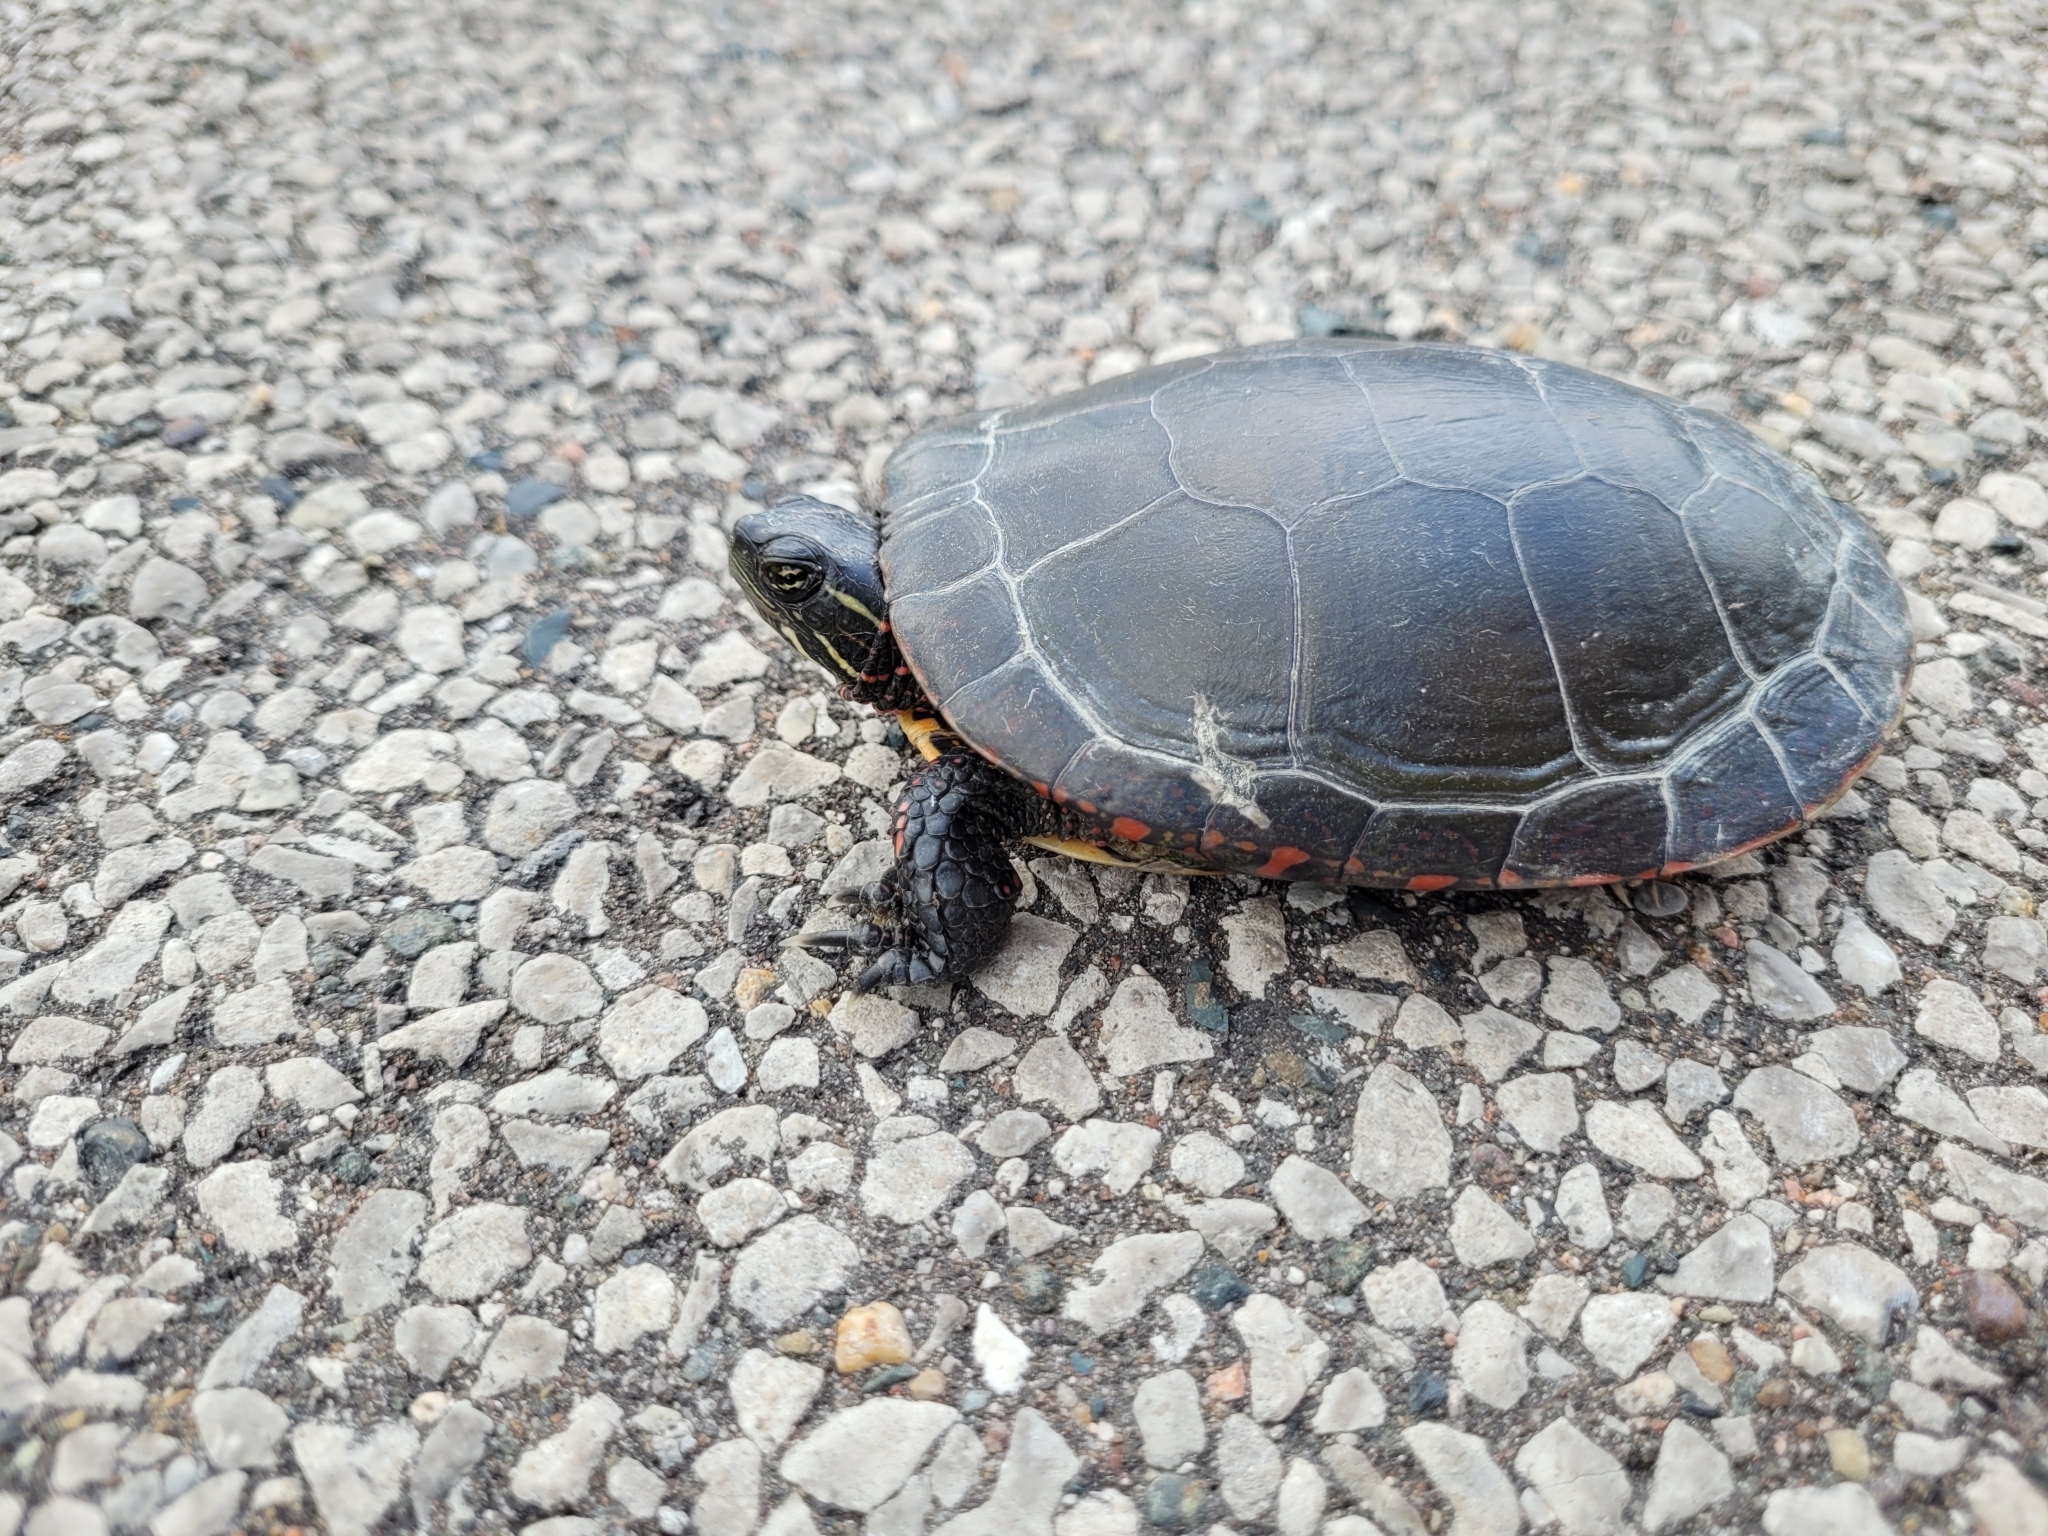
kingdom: Animalia
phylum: Chordata
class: Testudines
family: Emydidae
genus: Chrysemys
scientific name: Chrysemys picta
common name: Painted turtle
